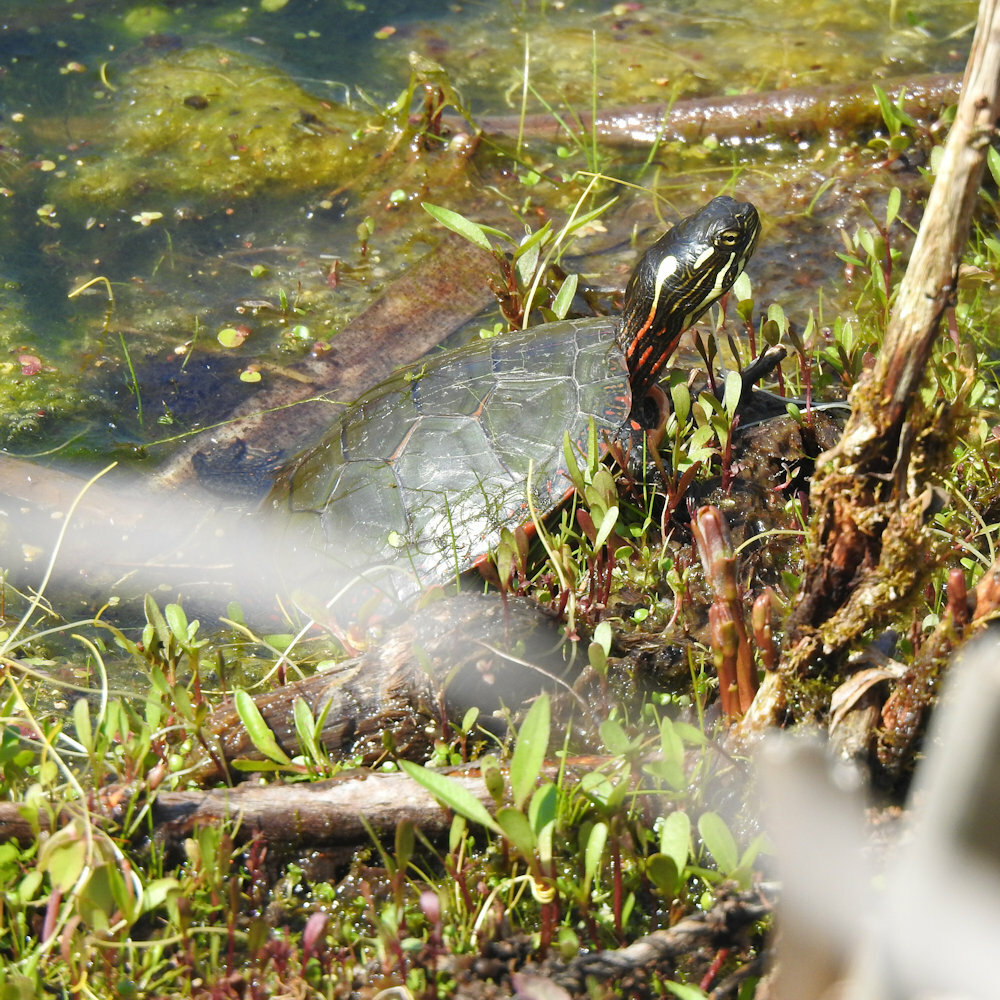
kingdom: Animalia
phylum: Chordata
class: Testudines
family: Emydidae
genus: Chrysemys
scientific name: Chrysemys picta
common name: Painted turtle
